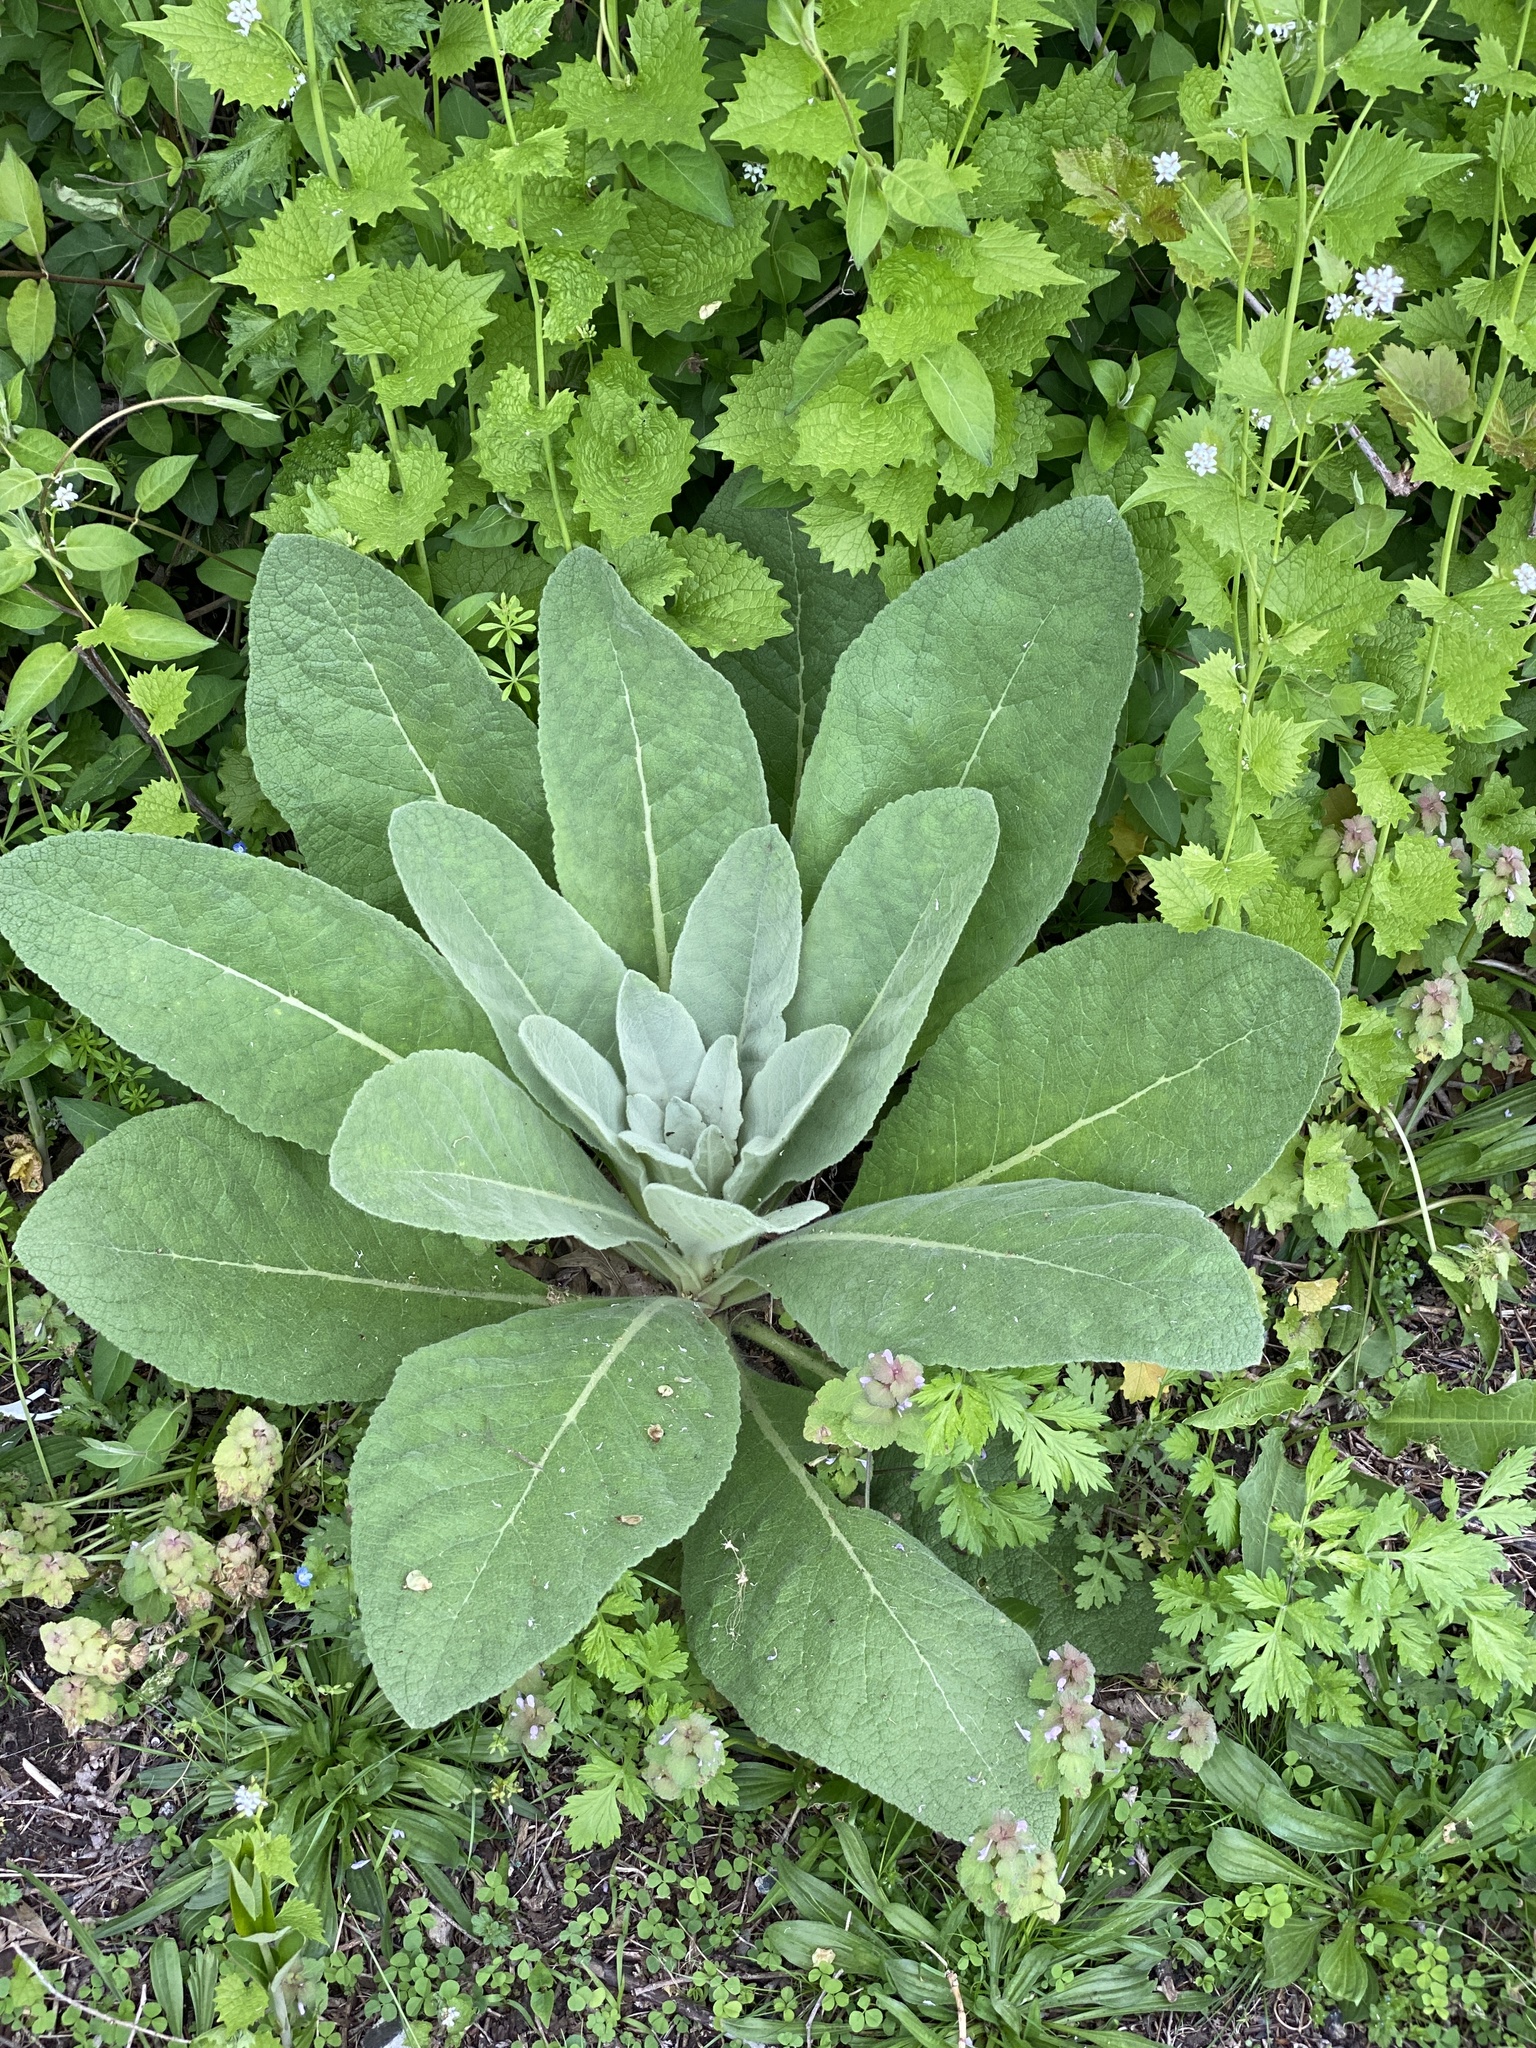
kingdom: Plantae
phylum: Tracheophyta
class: Magnoliopsida
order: Lamiales
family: Scrophulariaceae
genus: Verbascum
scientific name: Verbascum thapsus
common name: Common mullein
